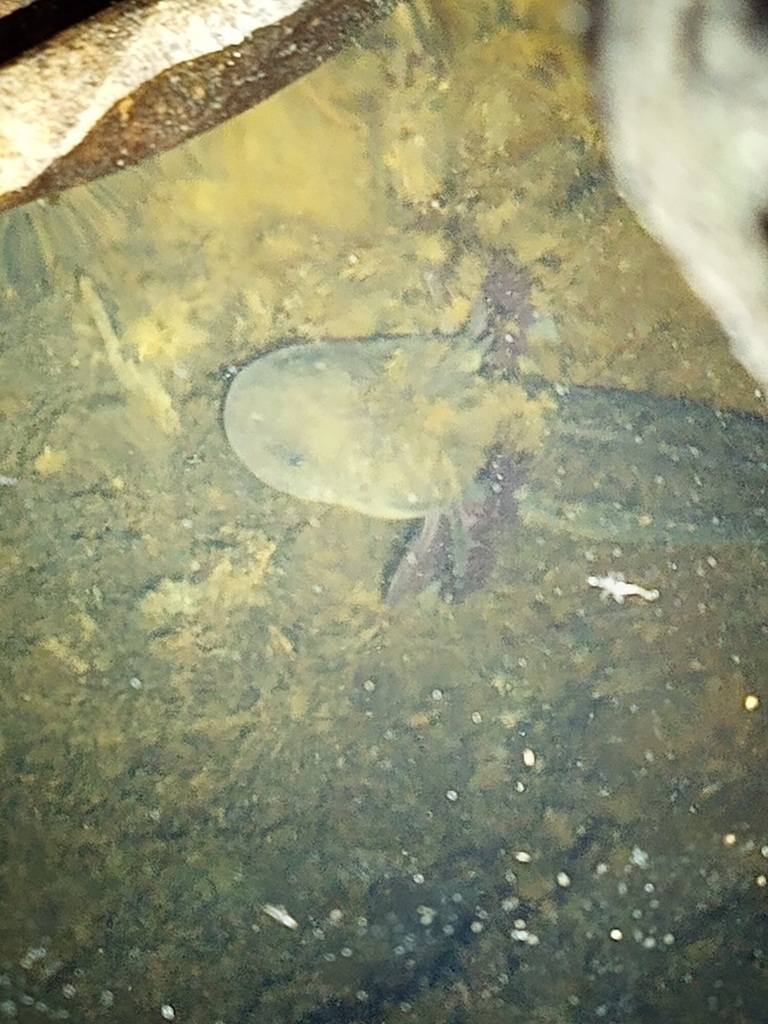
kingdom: Animalia
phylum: Chordata
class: Amphibia
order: Caudata
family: Ambystomatidae
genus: Ambystoma
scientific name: Ambystoma flavipiperatum
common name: Yellow-peppered salamander
